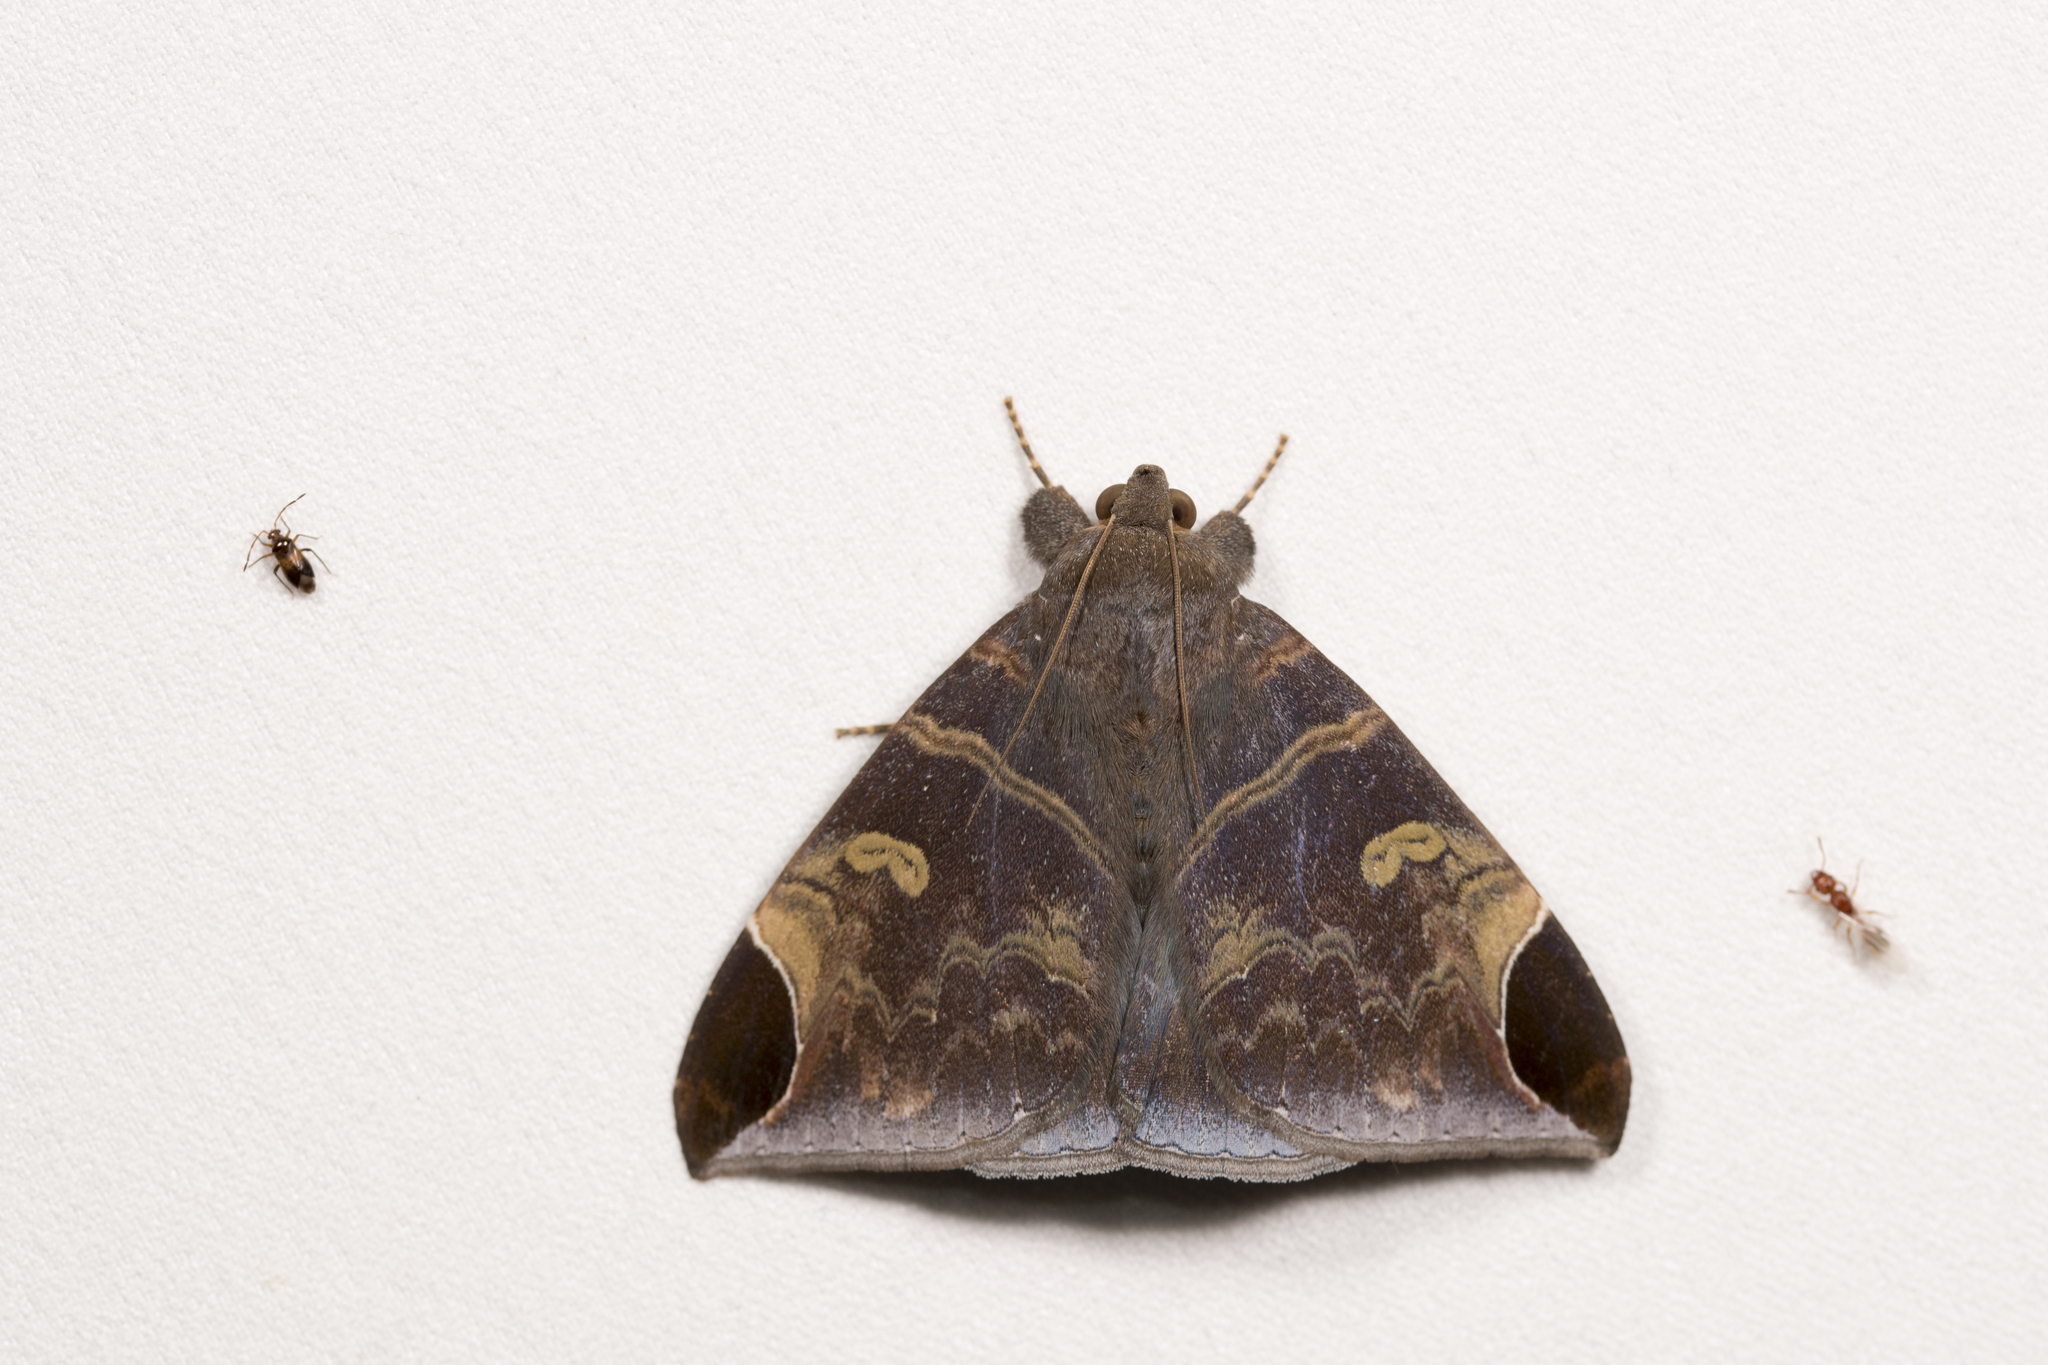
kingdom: Animalia
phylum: Arthropoda
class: Insecta
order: Lepidoptera
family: Erebidae
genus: Pindara
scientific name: Pindara illibata
